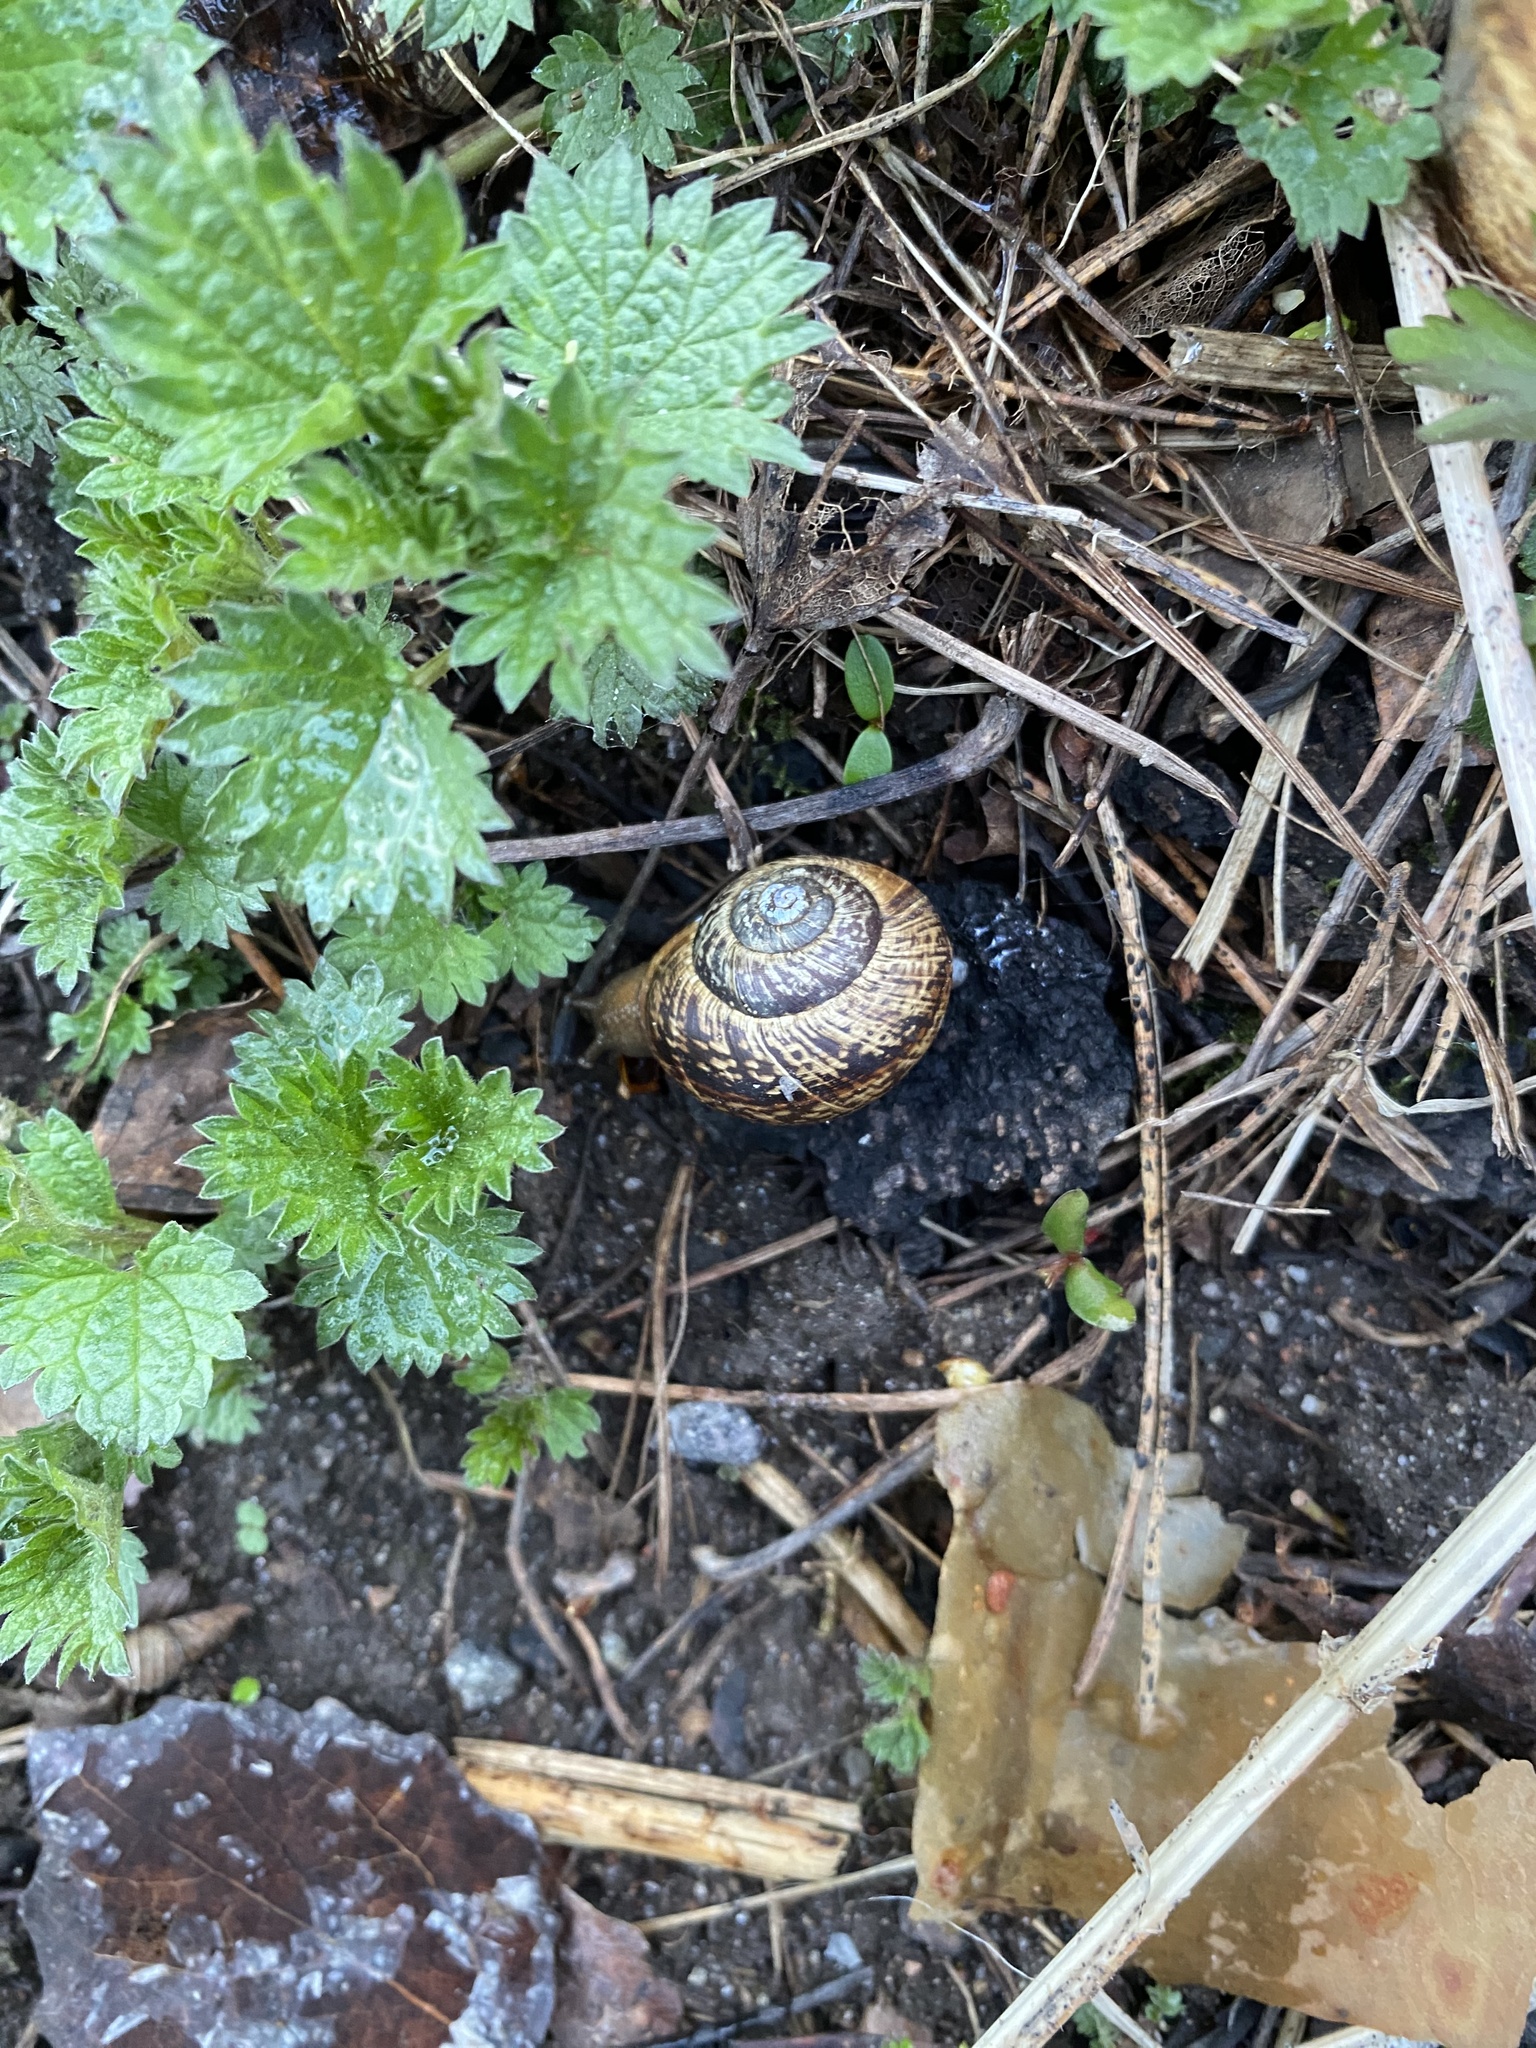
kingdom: Animalia
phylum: Mollusca
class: Gastropoda
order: Stylommatophora
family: Helicidae
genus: Arianta
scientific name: Arianta arbustorum
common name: Copse snail
